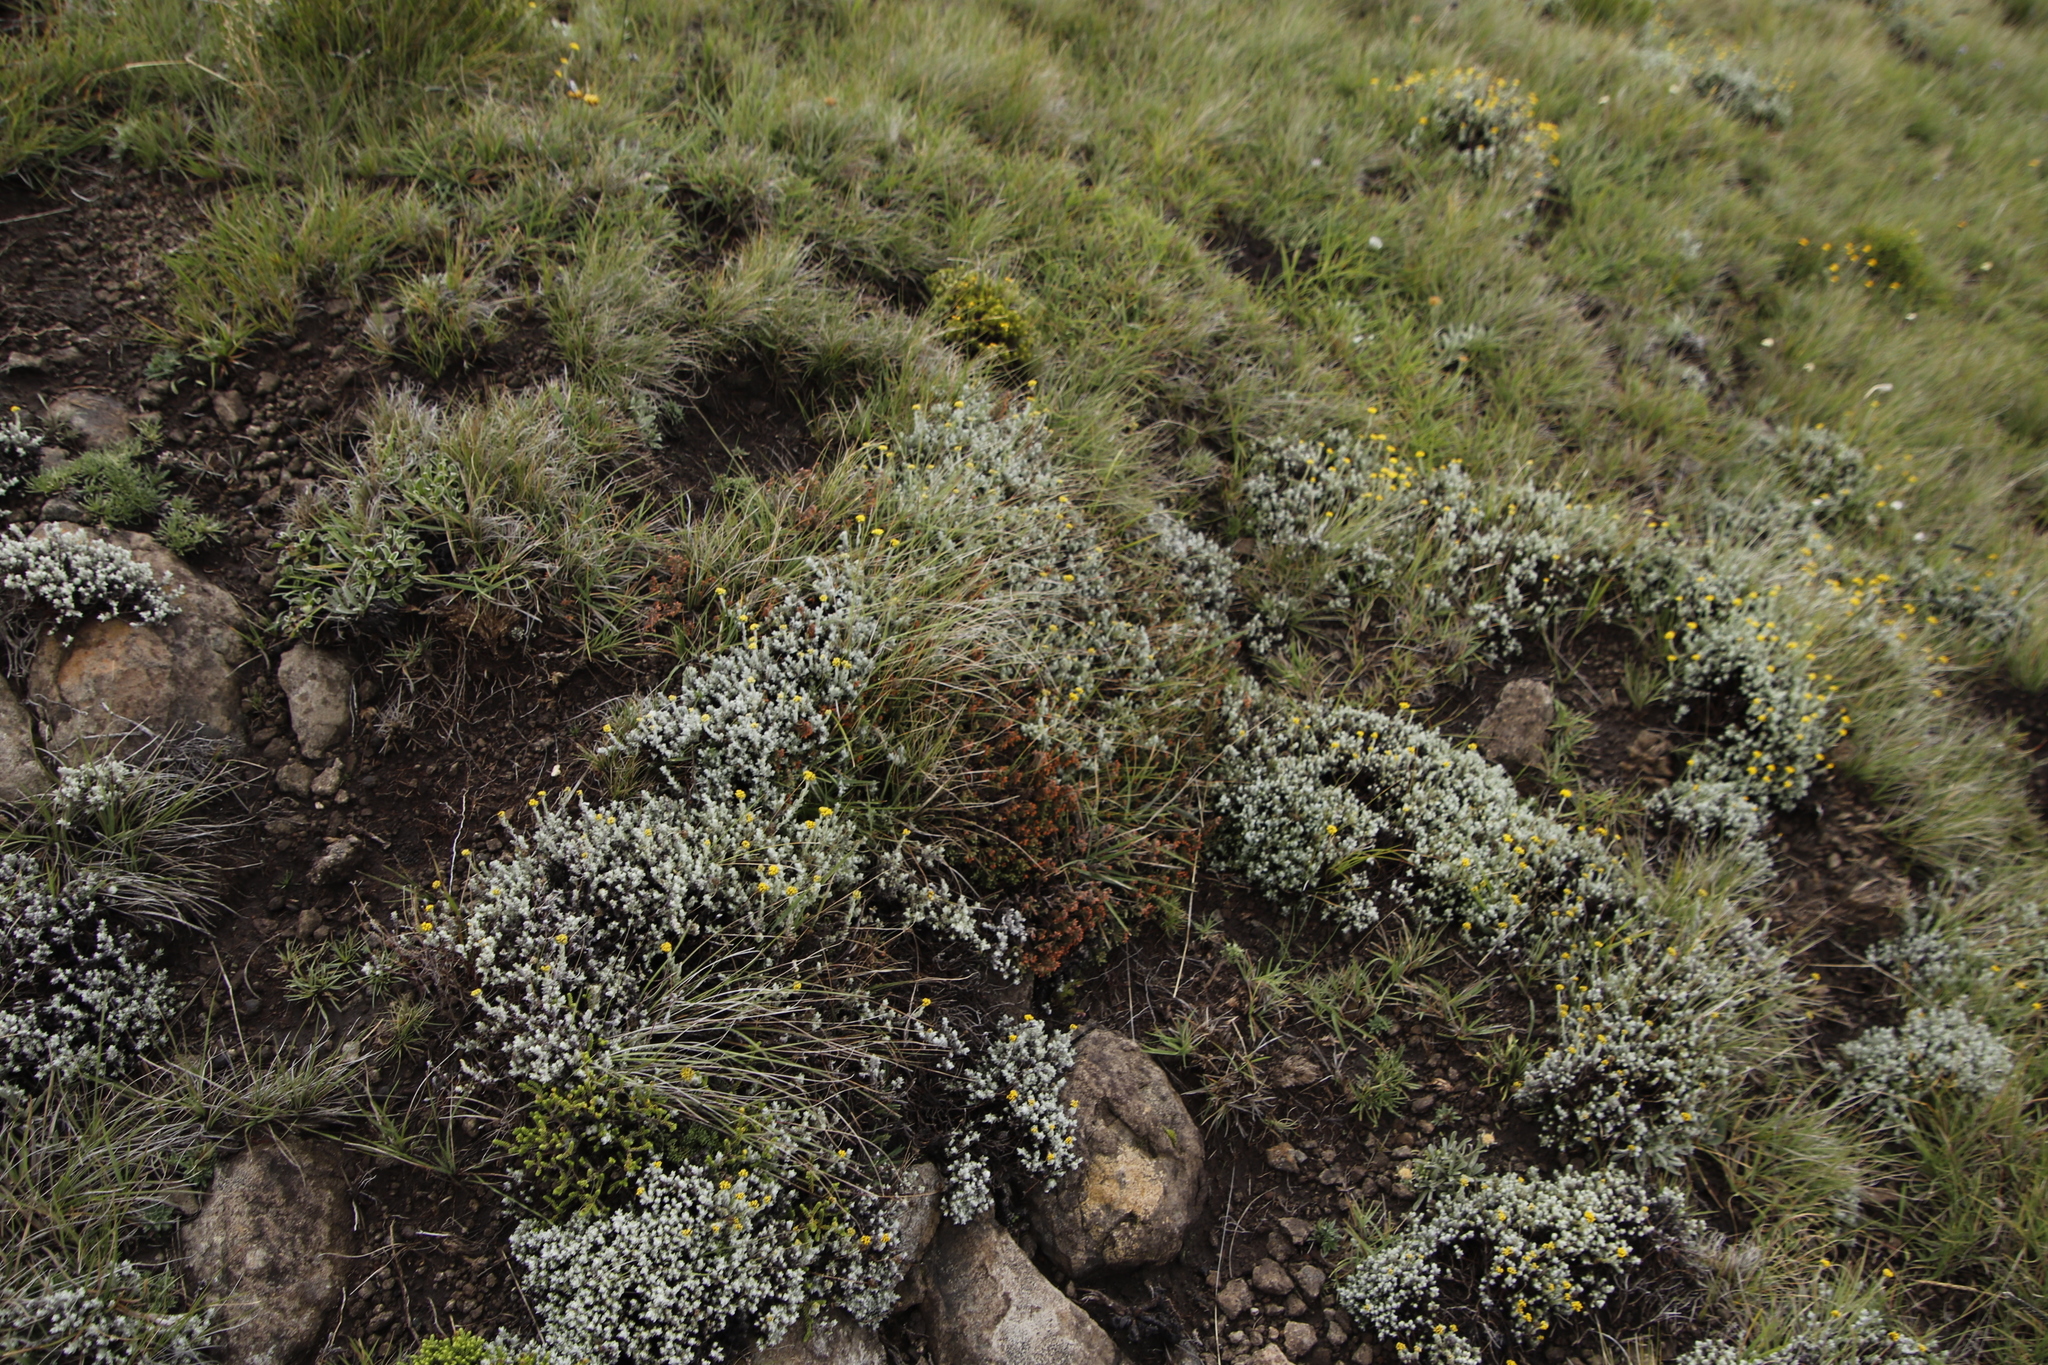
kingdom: Plantae
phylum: Tracheophyta
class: Magnoliopsida
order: Ericales
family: Ericaceae
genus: Erica
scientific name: Erica frigida
